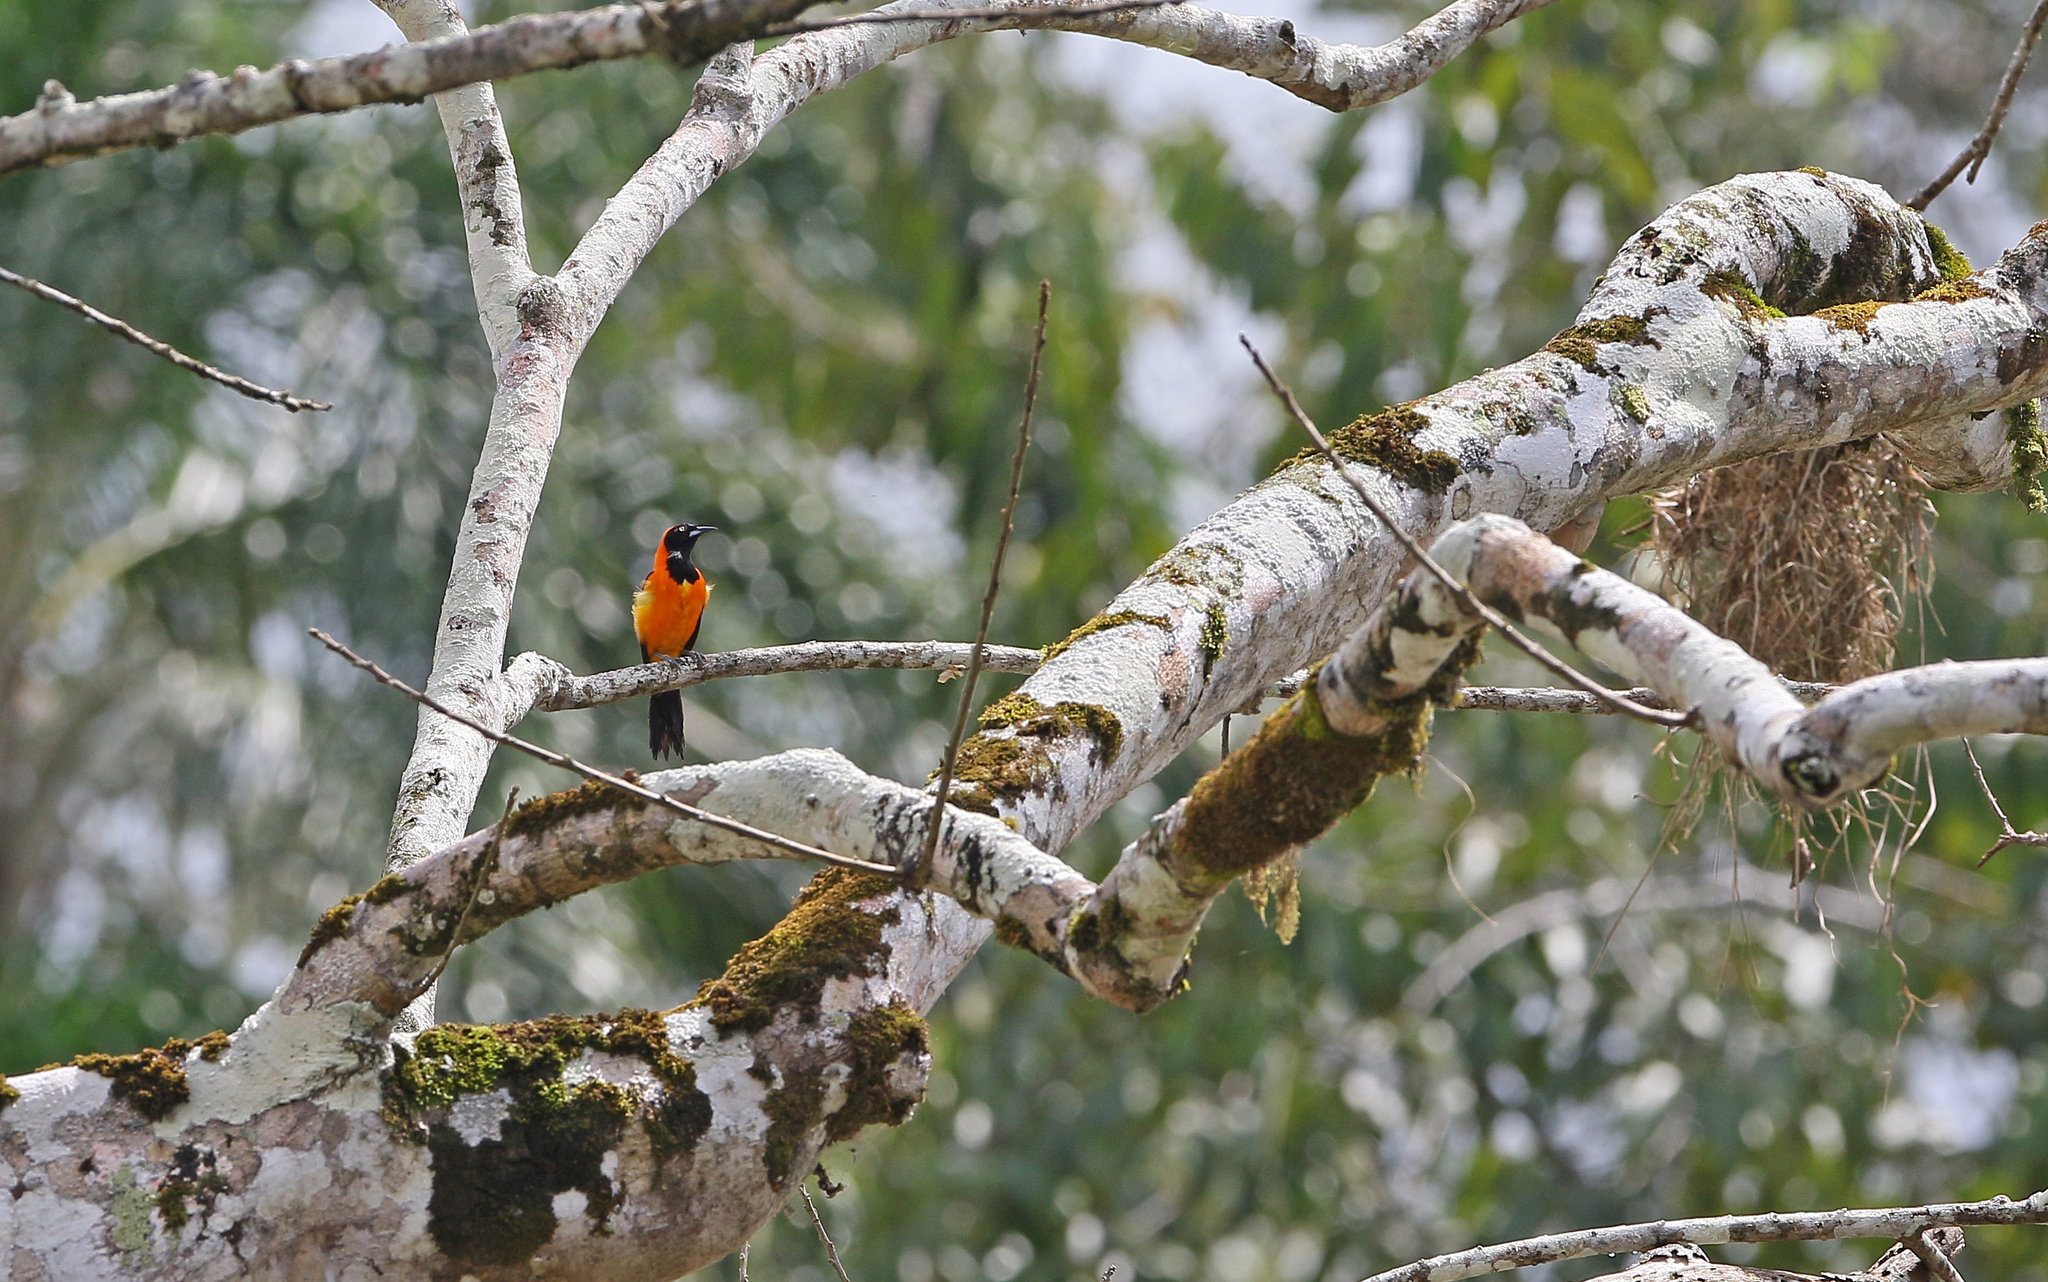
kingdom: Animalia
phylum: Chordata
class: Aves
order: Passeriformes
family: Icteridae
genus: Icterus
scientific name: Icterus icterus
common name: Venezuelan troupial
